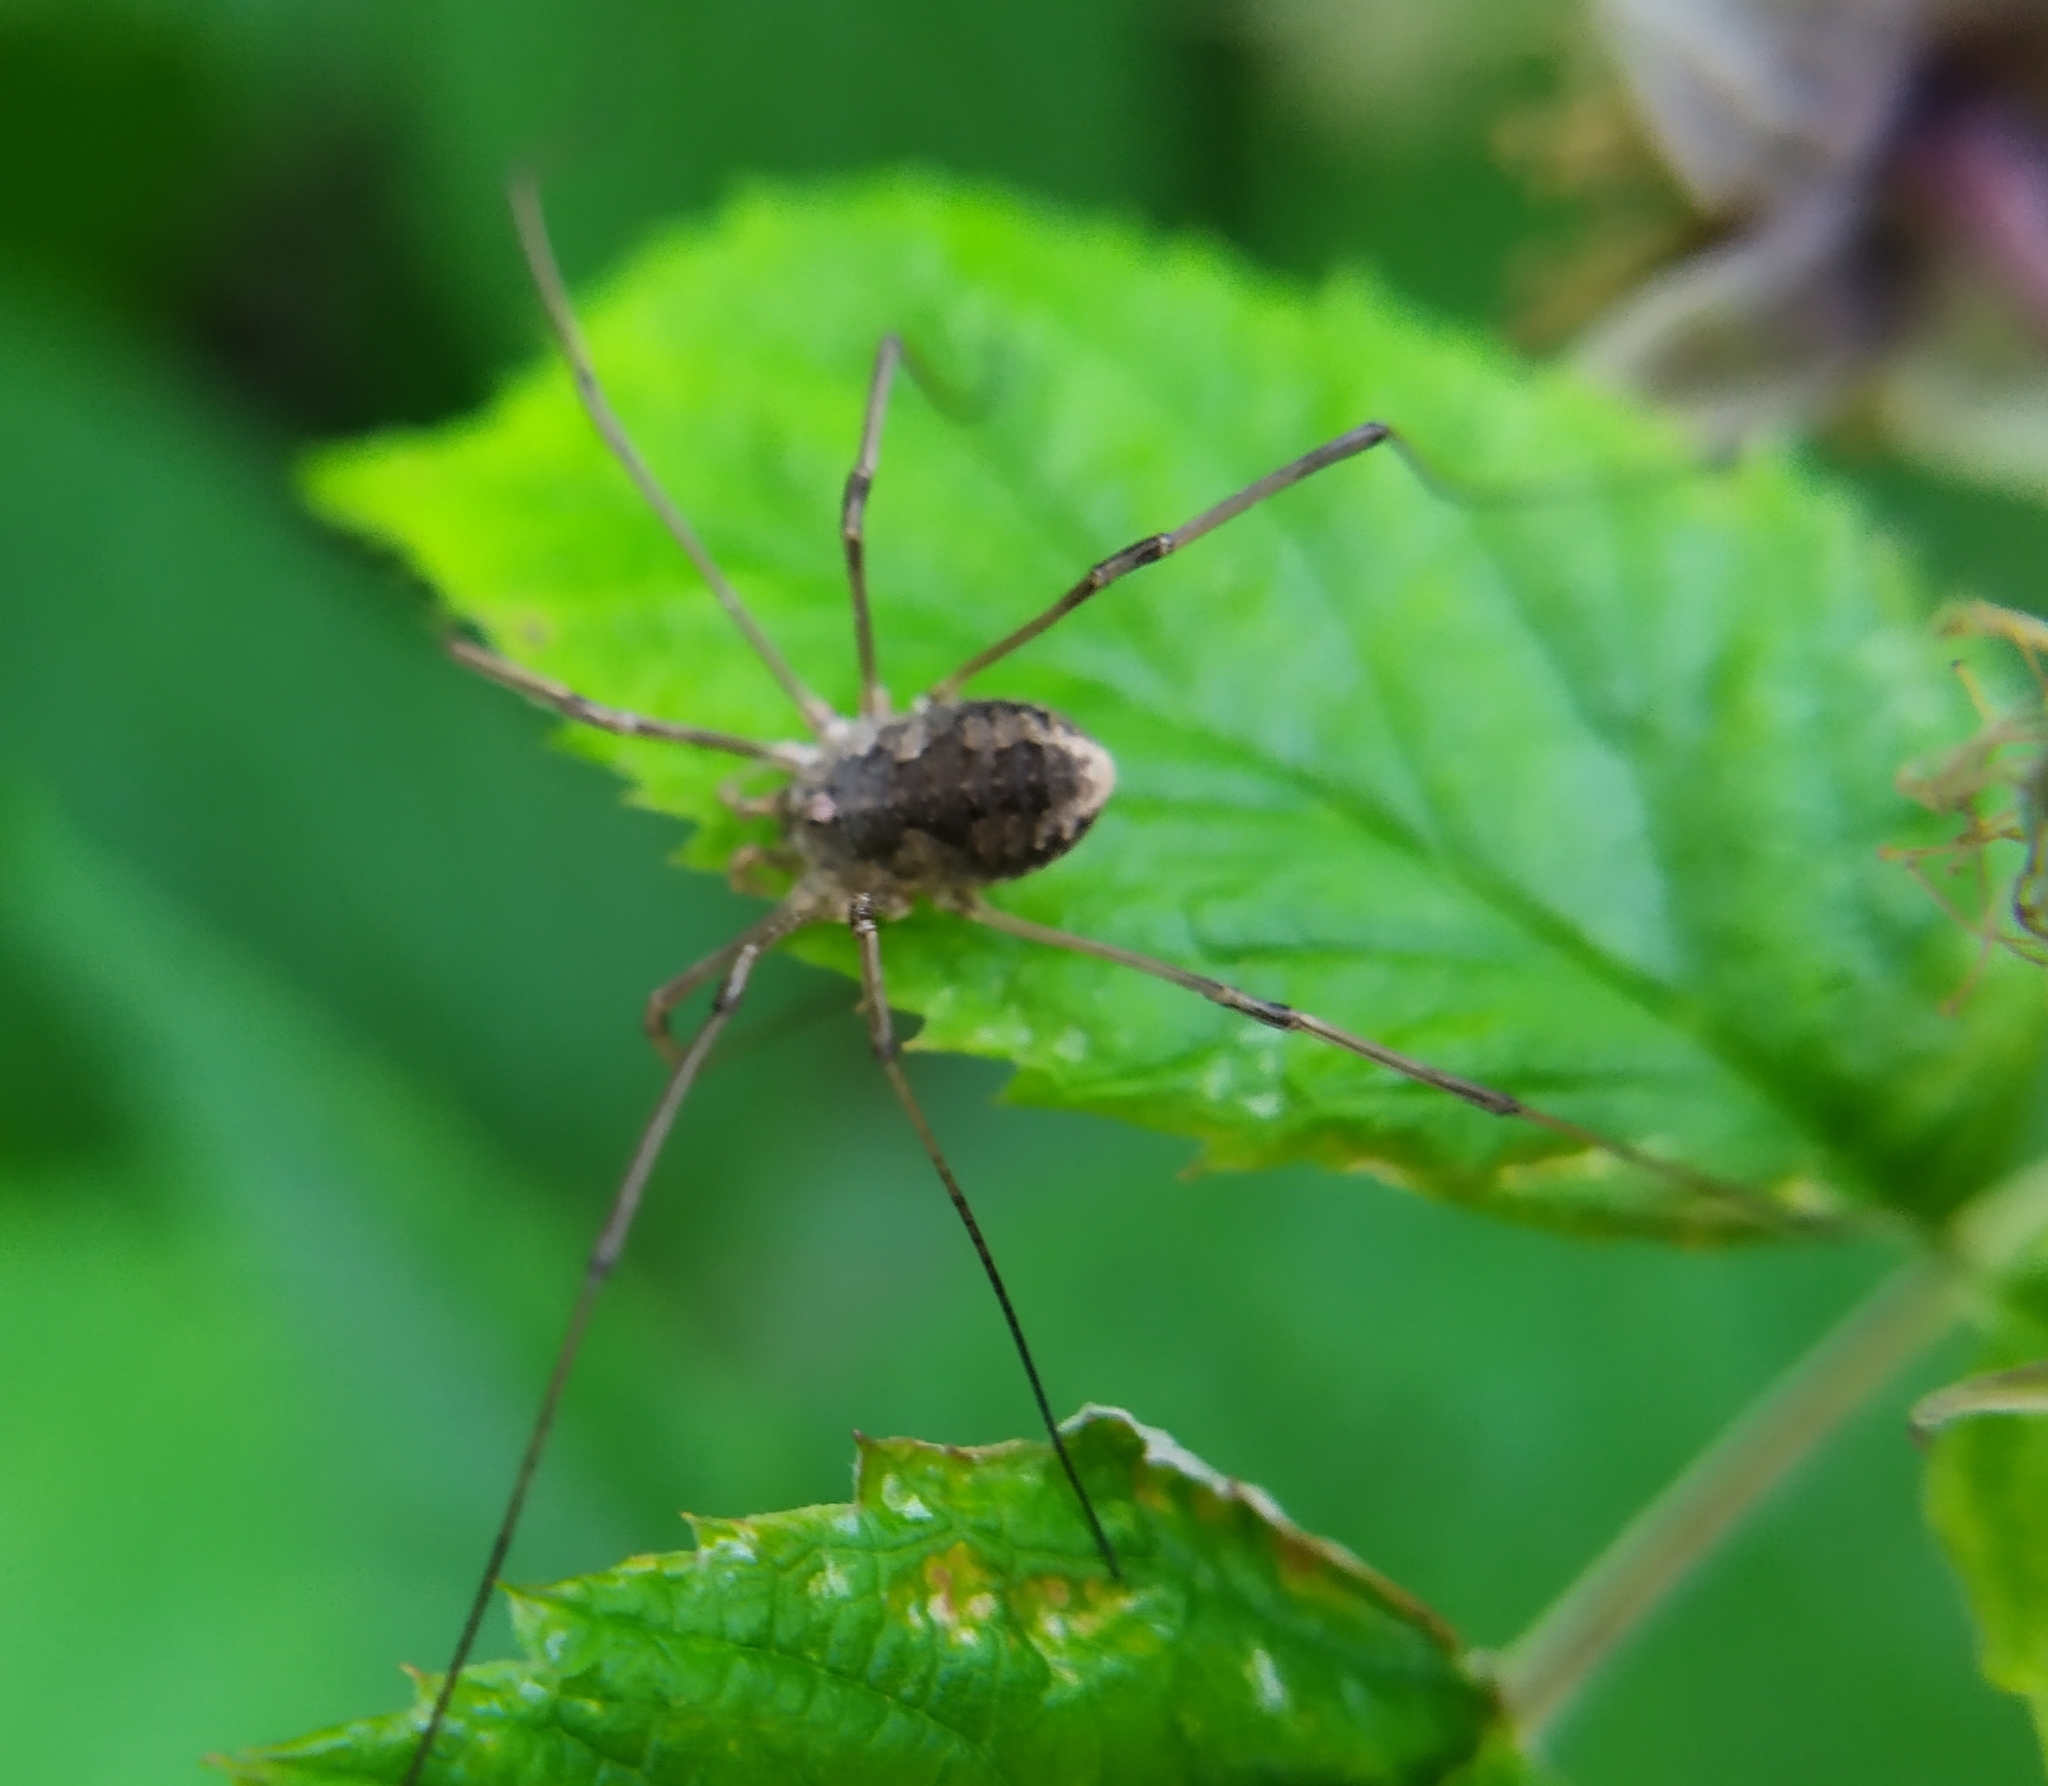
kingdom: Animalia
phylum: Arthropoda
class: Arachnida
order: Opiliones
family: Phalangiidae
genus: Phalangium
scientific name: Phalangium opilio
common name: Daddy longleg
